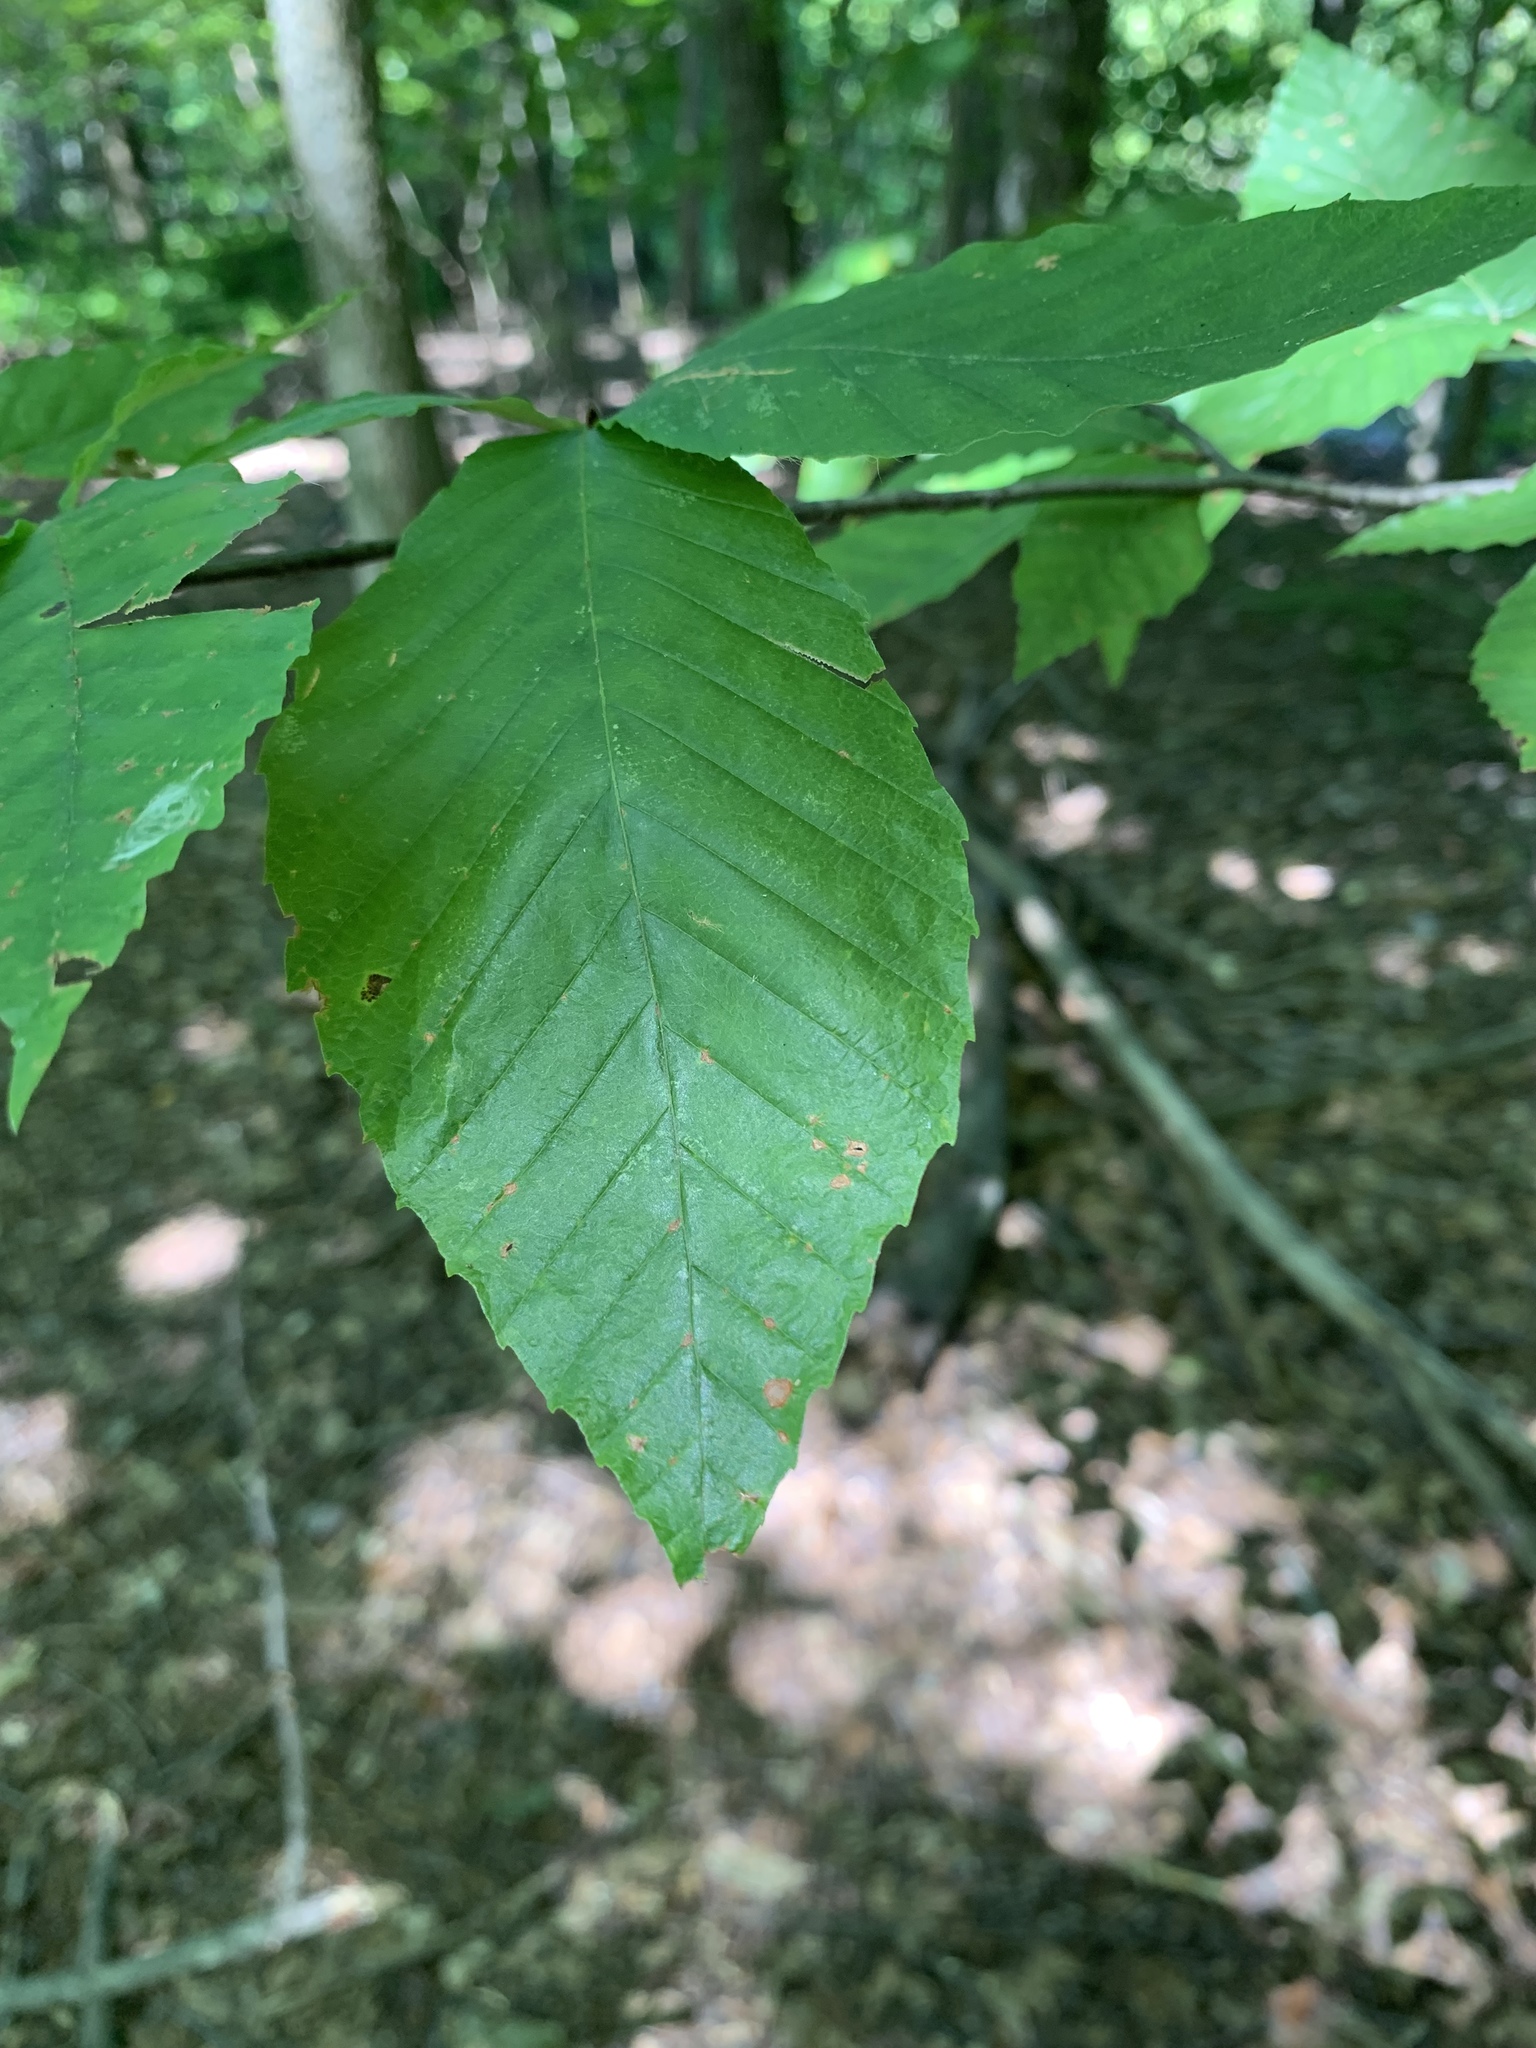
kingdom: Plantae
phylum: Tracheophyta
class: Magnoliopsida
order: Fagales
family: Fagaceae
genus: Fagus
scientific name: Fagus grandifolia
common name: American beech
